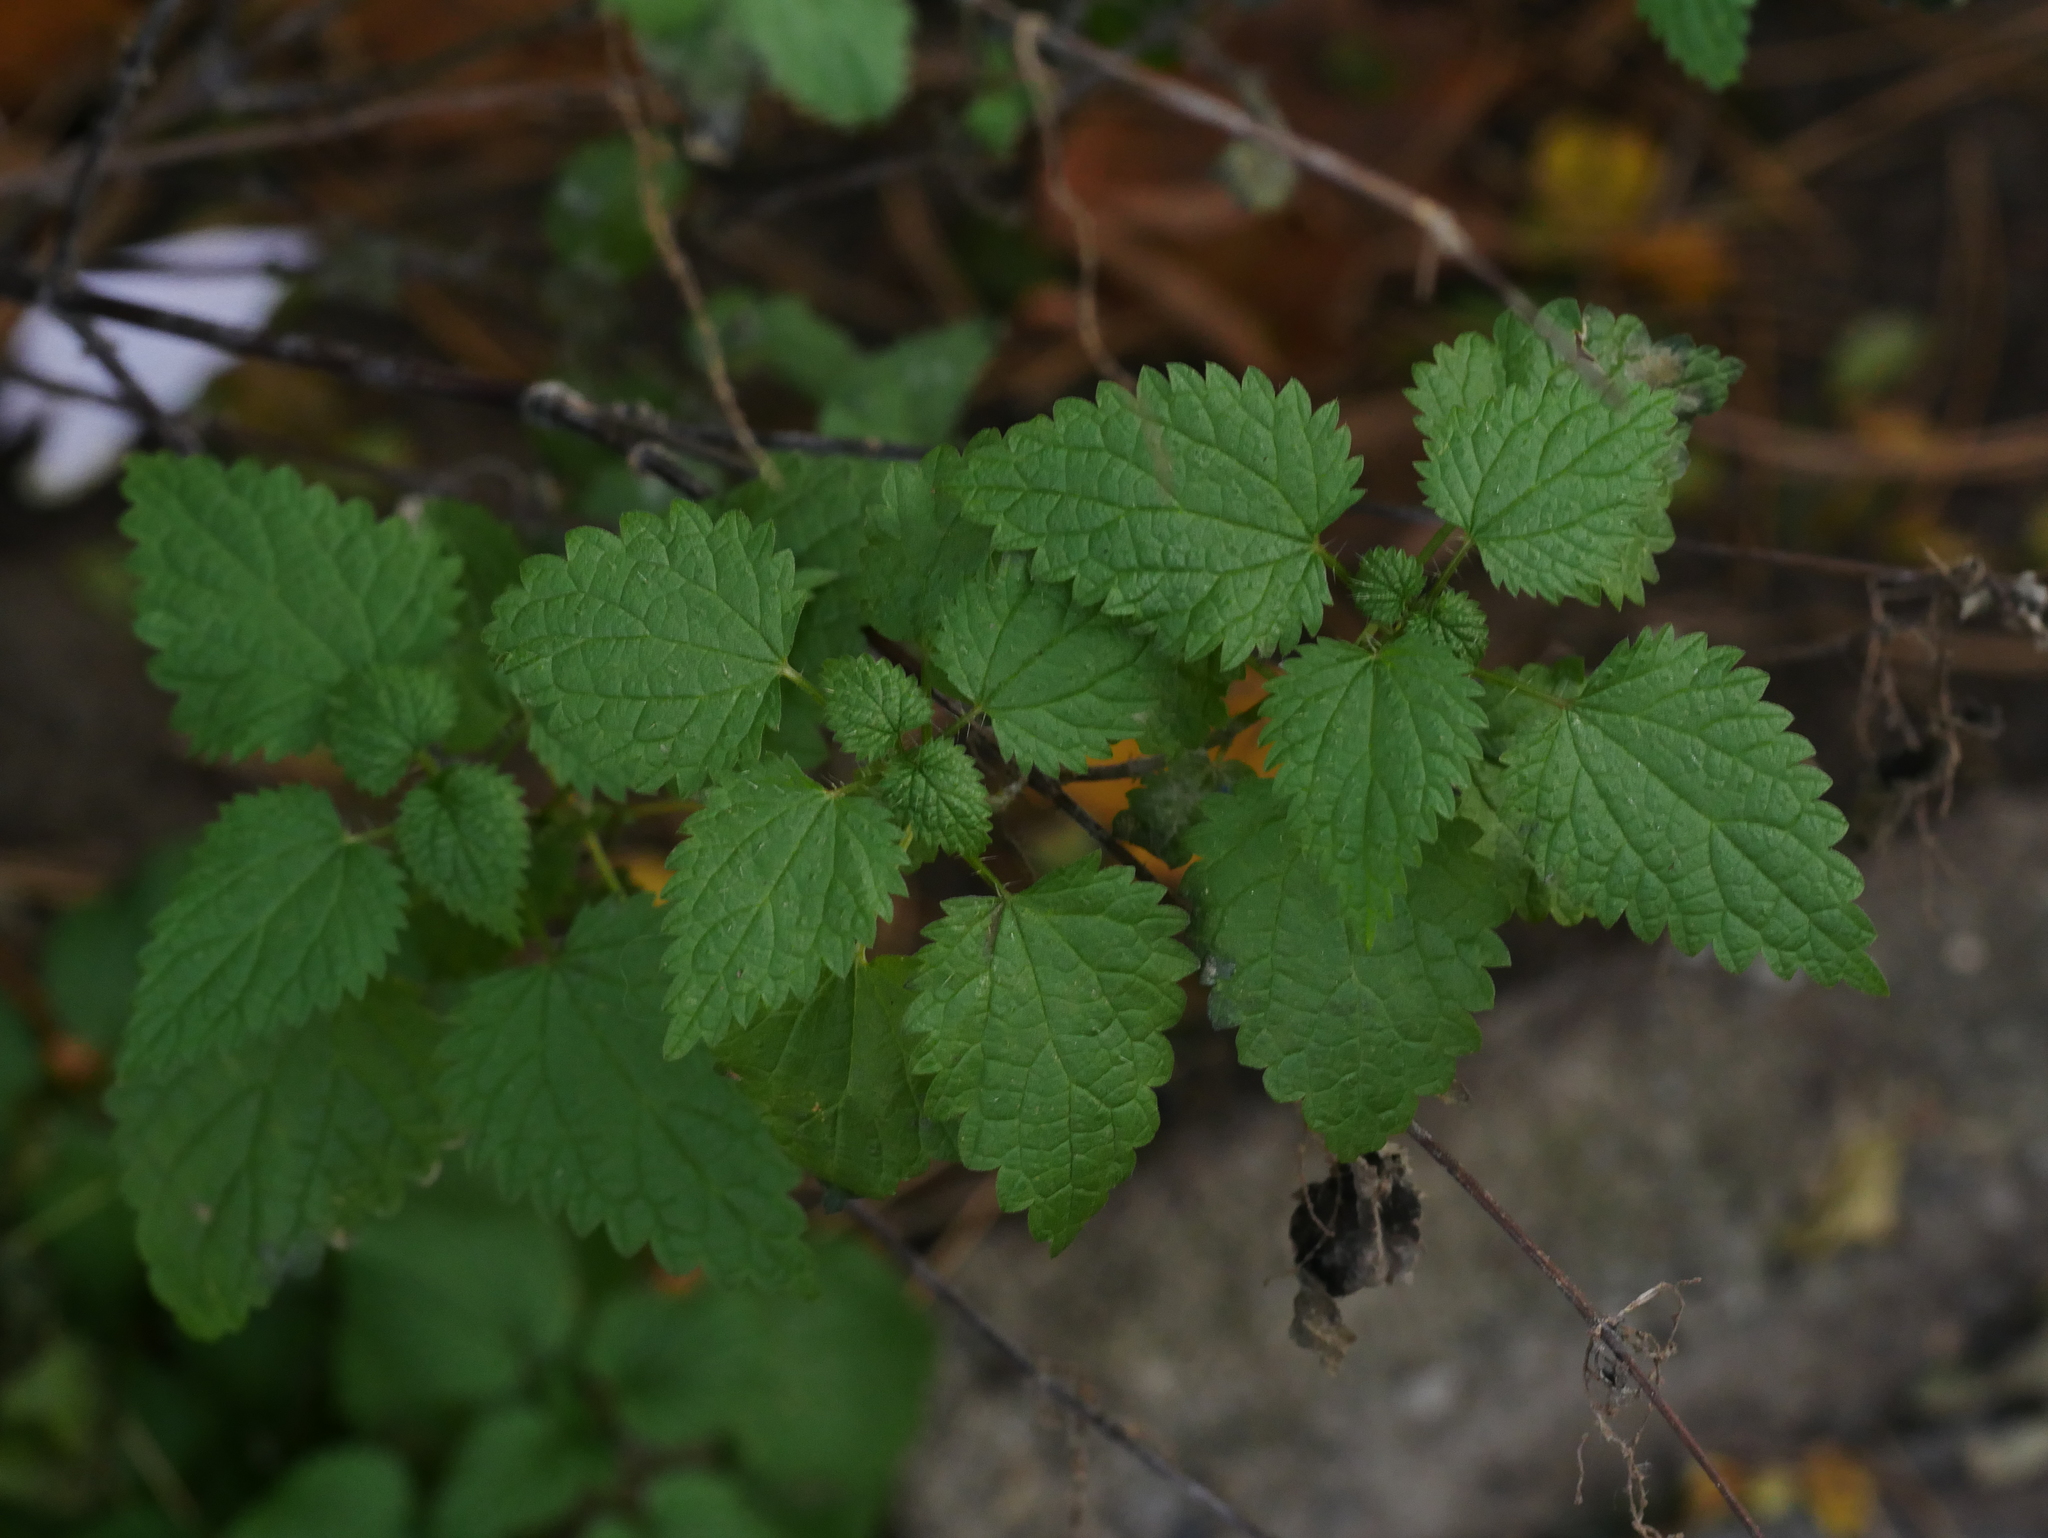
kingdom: Plantae
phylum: Tracheophyta
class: Magnoliopsida
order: Rosales
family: Urticaceae
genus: Urtica
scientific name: Urtica dioica
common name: Common nettle
